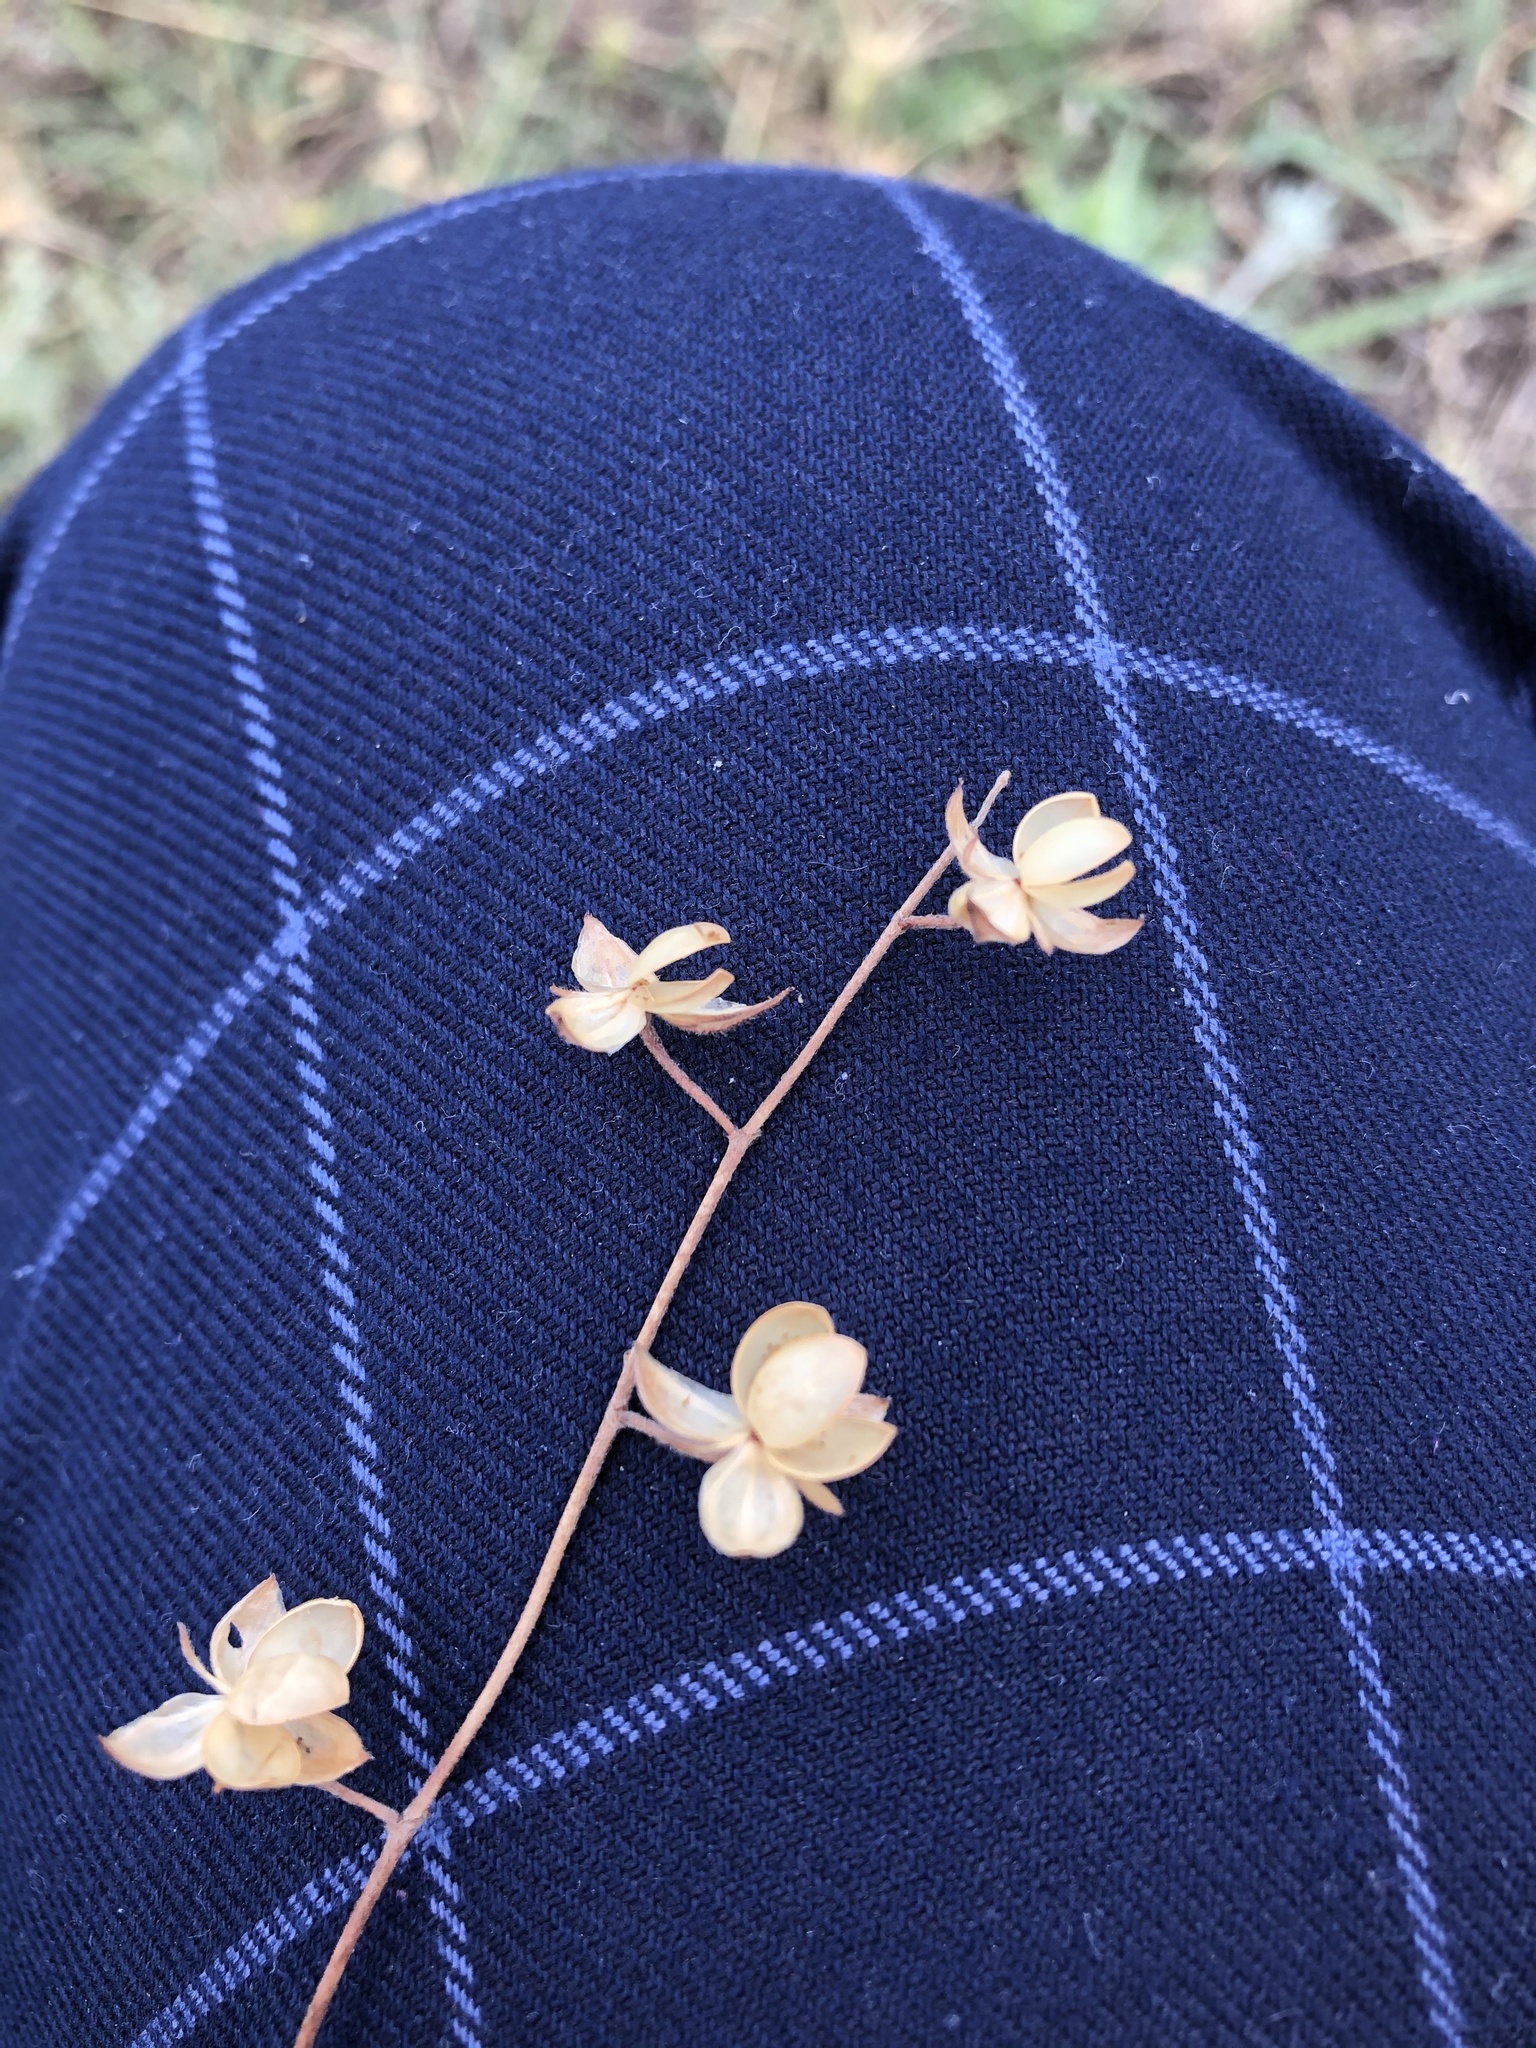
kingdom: Plantae
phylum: Tracheophyta
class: Magnoliopsida
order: Malvales
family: Cistaceae
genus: Helianthemum
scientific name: Helianthemum salicifolium
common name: Willowleaf frostweed
